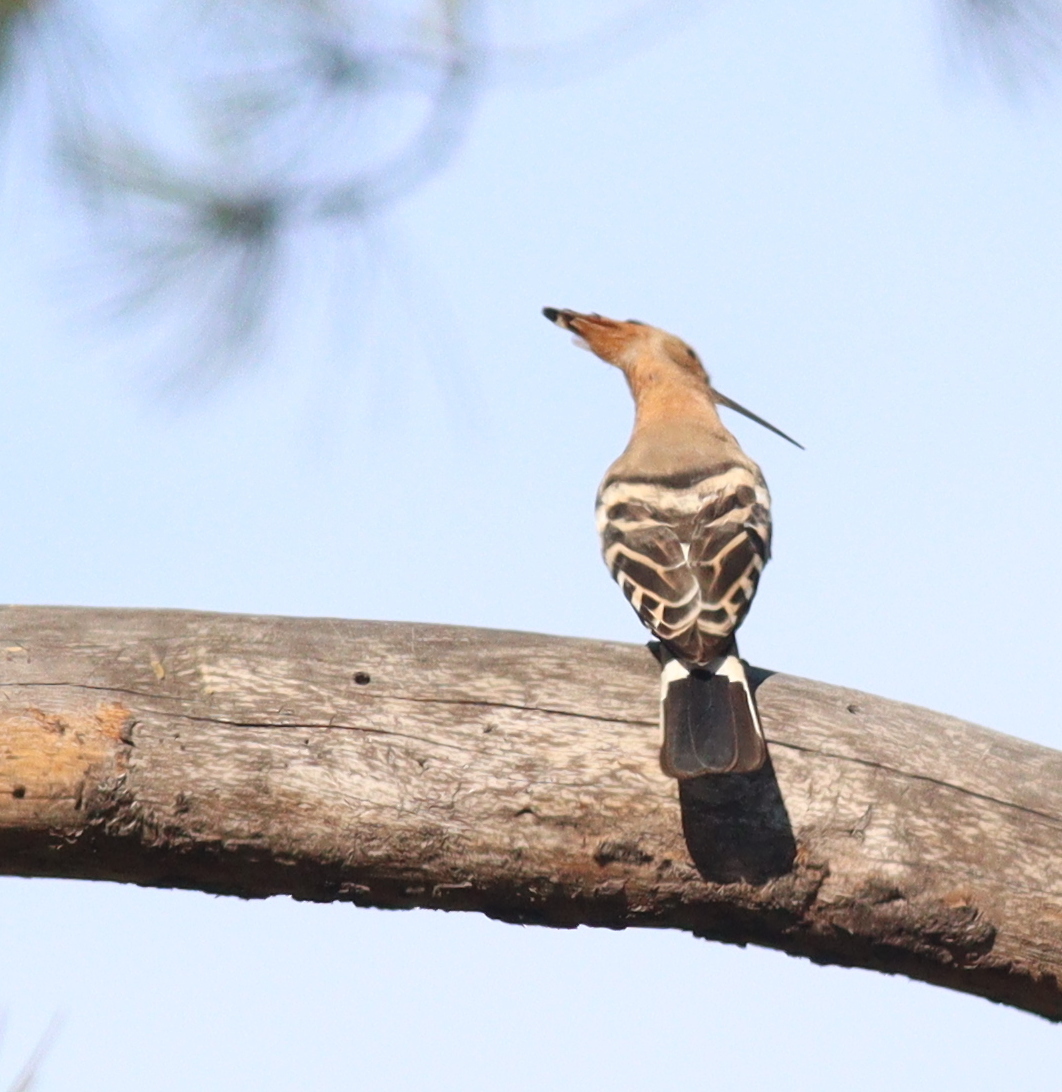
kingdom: Animalia
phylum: Chordata
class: Aves
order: Bucerotiformes
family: Upupidae
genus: Upupa
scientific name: Upupa epops
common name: Eurasian hoopoe
